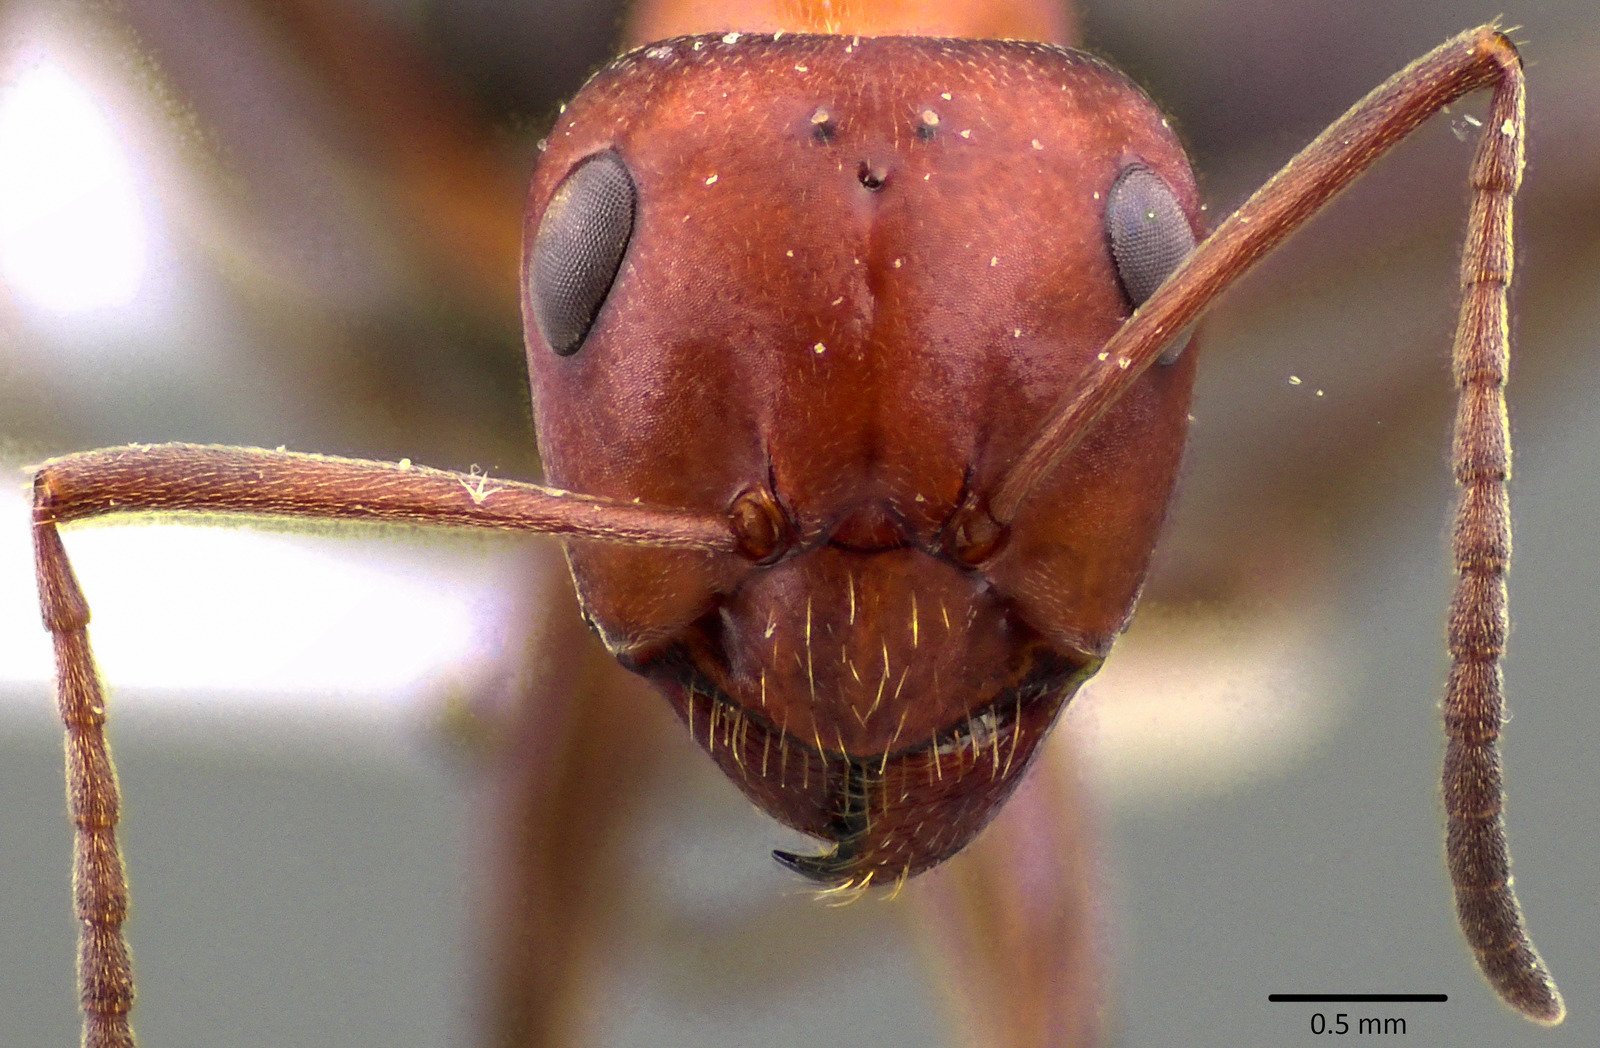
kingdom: Animalia
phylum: Arthropoda
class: Insecta
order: Hymenoptera
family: Formicidae
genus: Formica
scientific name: Formica prociliata
